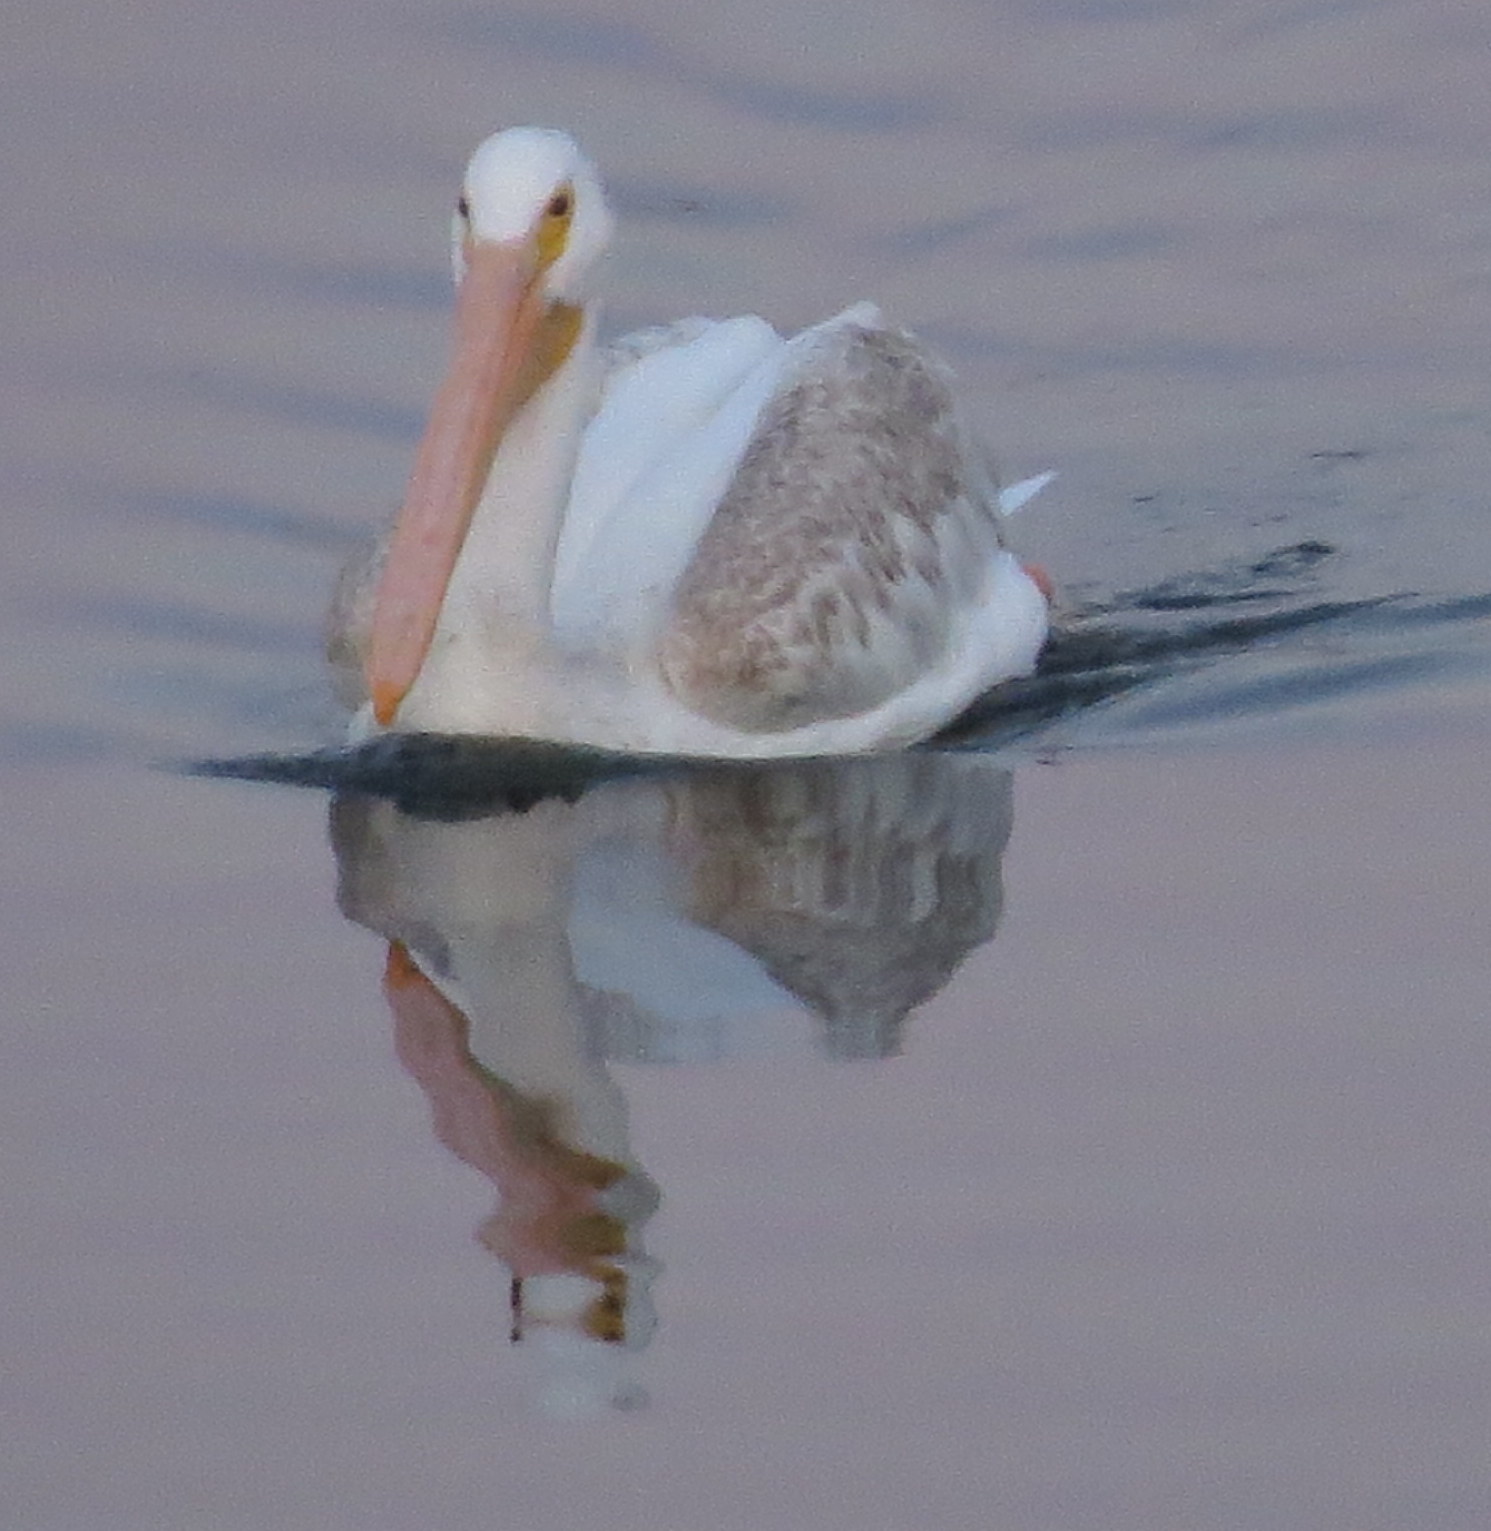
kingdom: Animalia
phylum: Chordata
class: Aves
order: Pelecaniformes
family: Pelecanidae
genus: Pelecanus
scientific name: Pelecanus erythrorhynchos
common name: American white pelican
